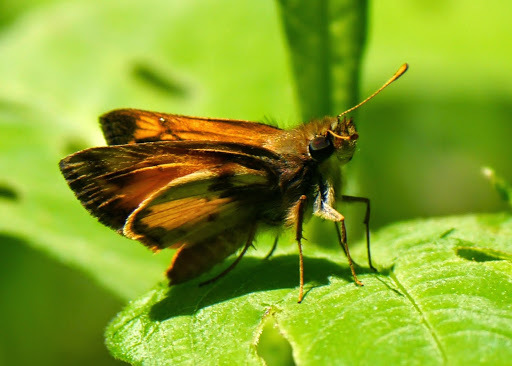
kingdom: Animalia
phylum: Arthropoda
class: Insecta
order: Lepidoptera
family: Hesperiidae
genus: Lon
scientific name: Lon zabulon
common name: Zabulon skipper
